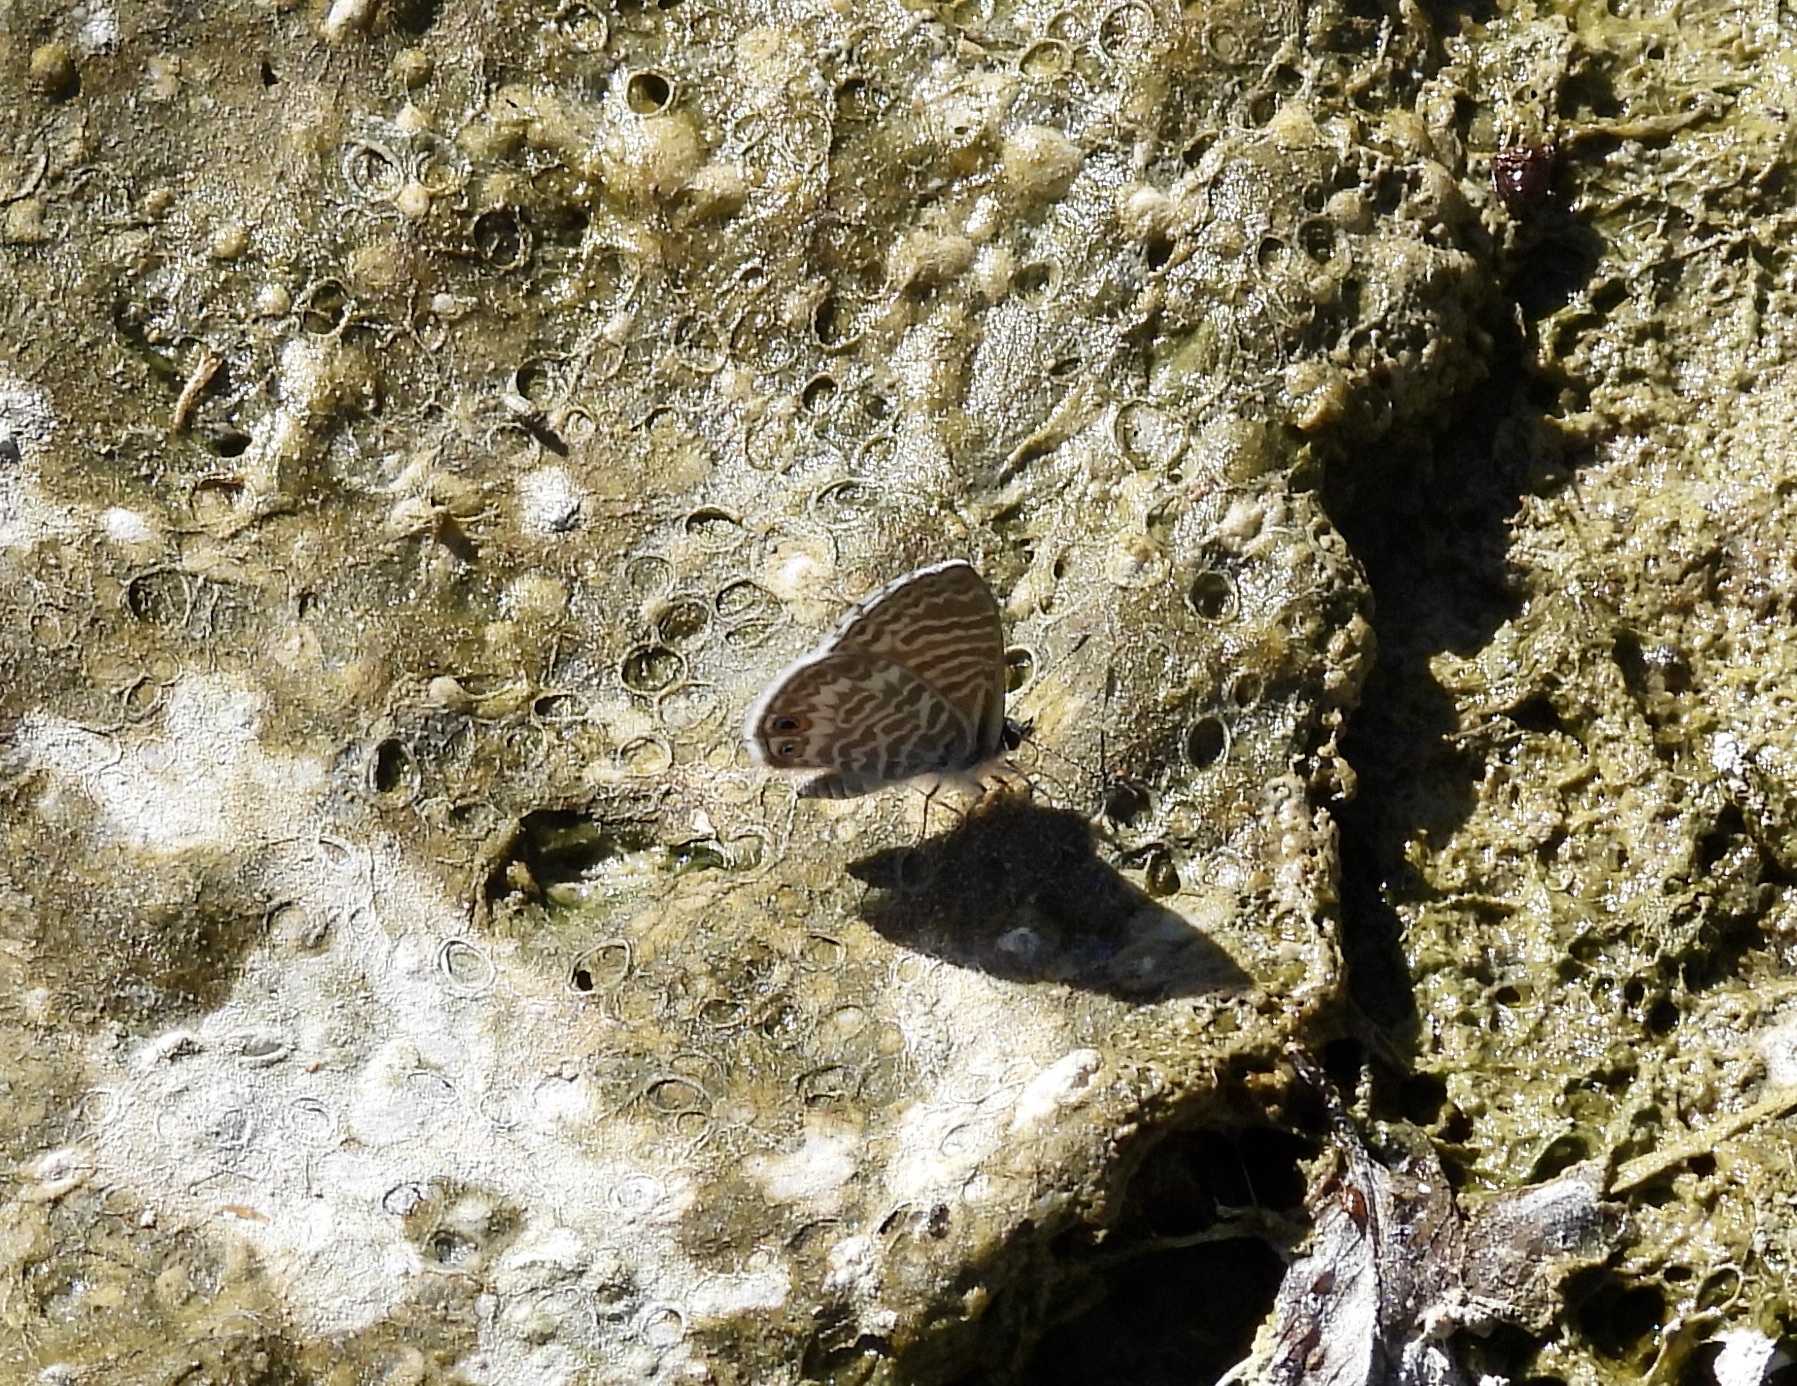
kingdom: Animalia
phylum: Arthropoda
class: Insecta
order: Lepidoptera
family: Lycaenidae
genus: Leptotes
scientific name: Leptotes marina
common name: Marine blue
